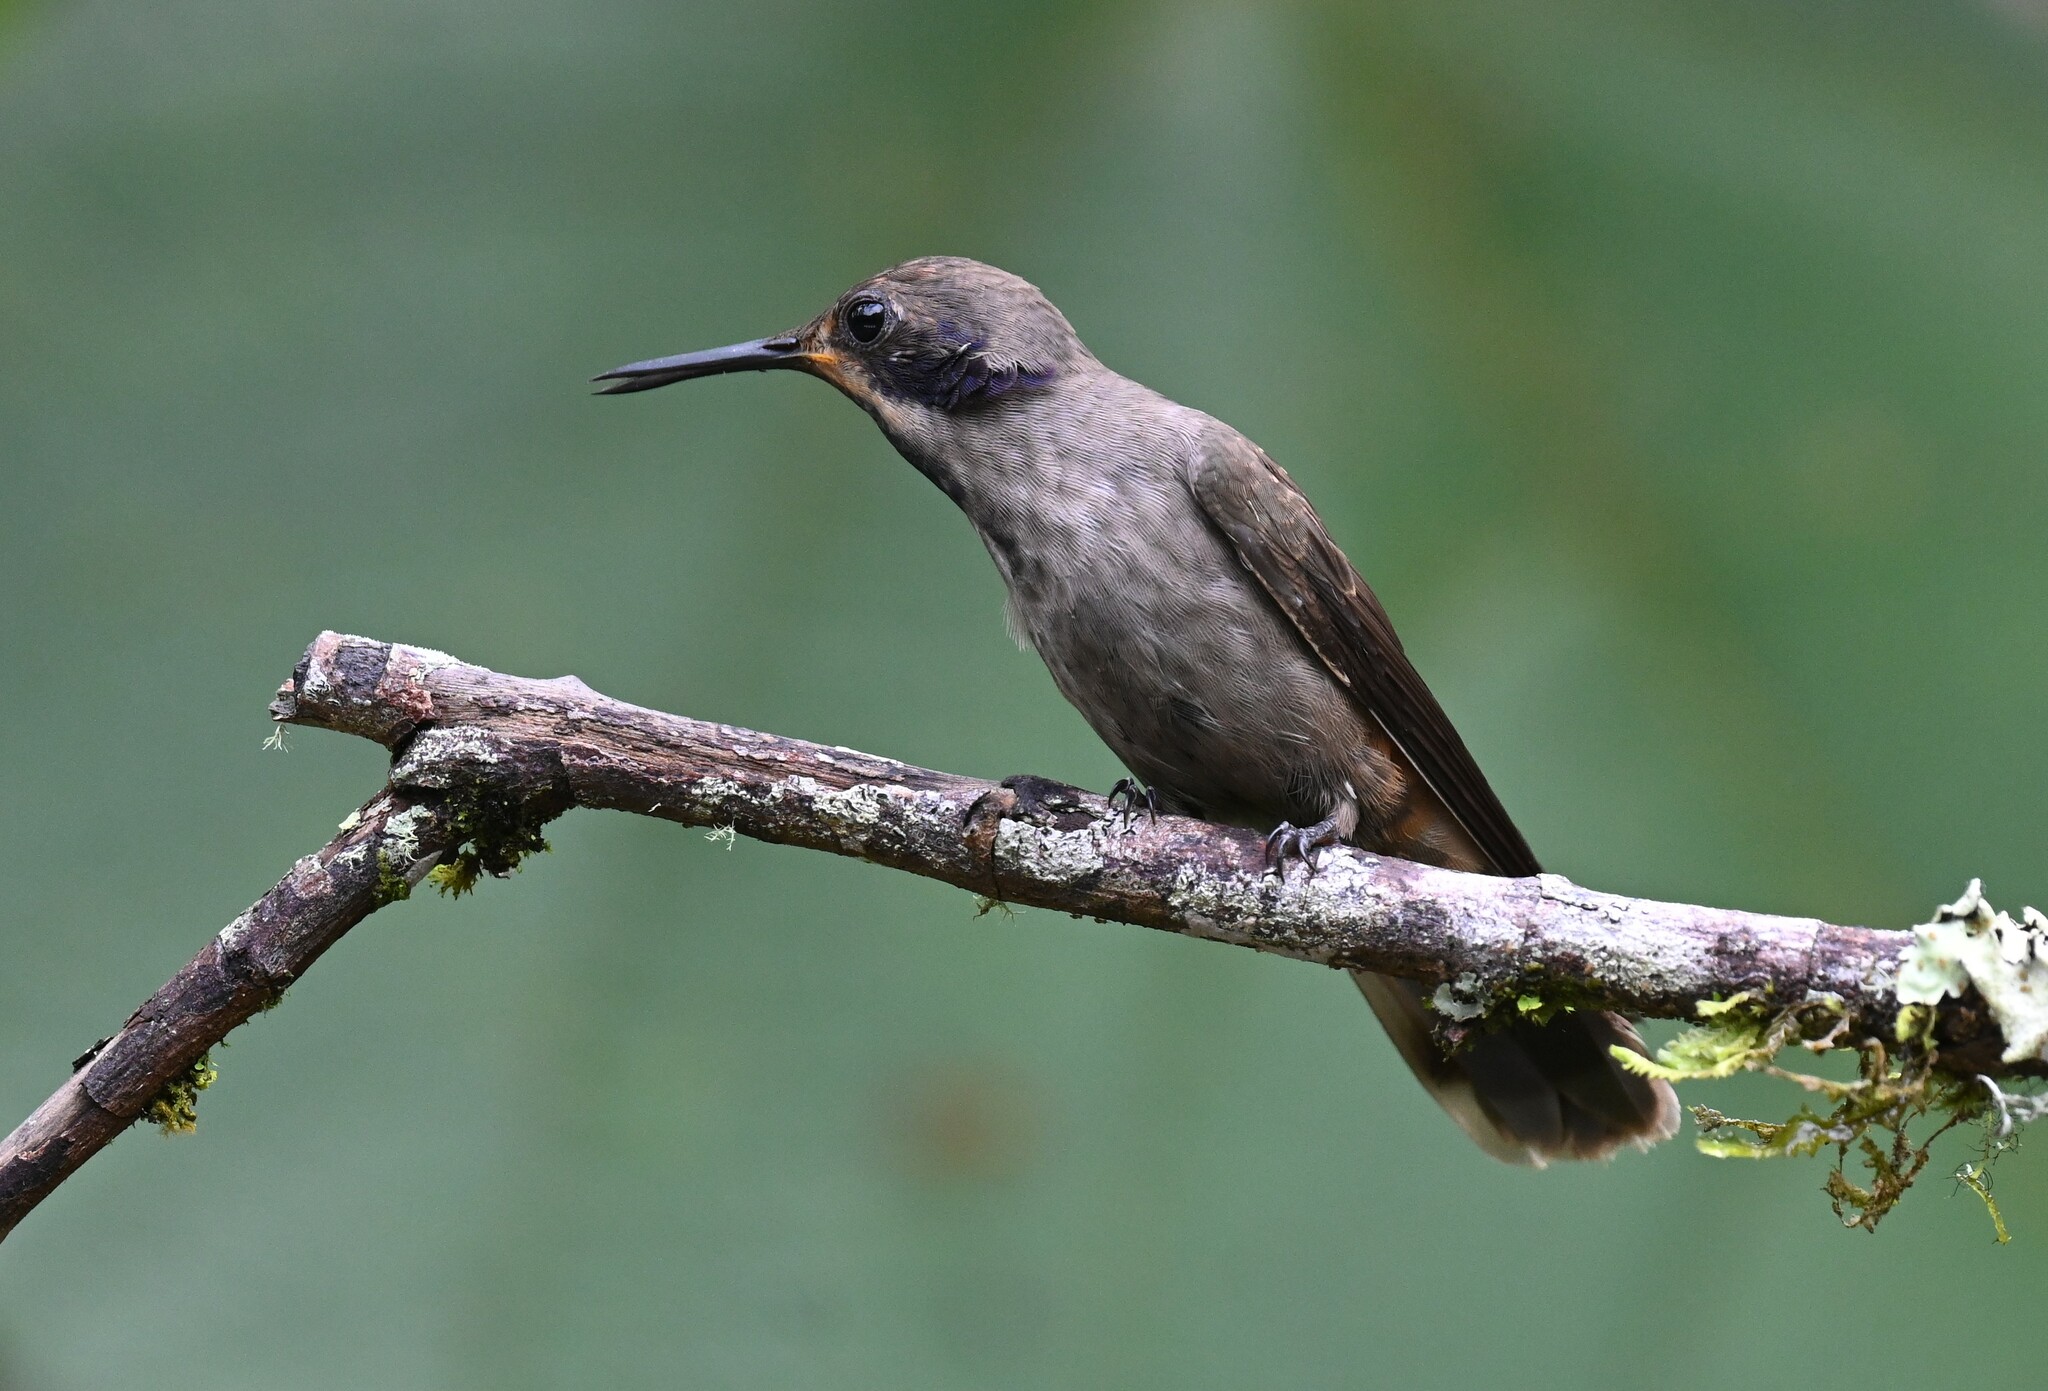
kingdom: Animalia
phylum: Chordata
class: Aves
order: Apodiformes
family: Trochilidae
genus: Colibri
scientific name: Colibri delphinae
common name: Brown violetear
